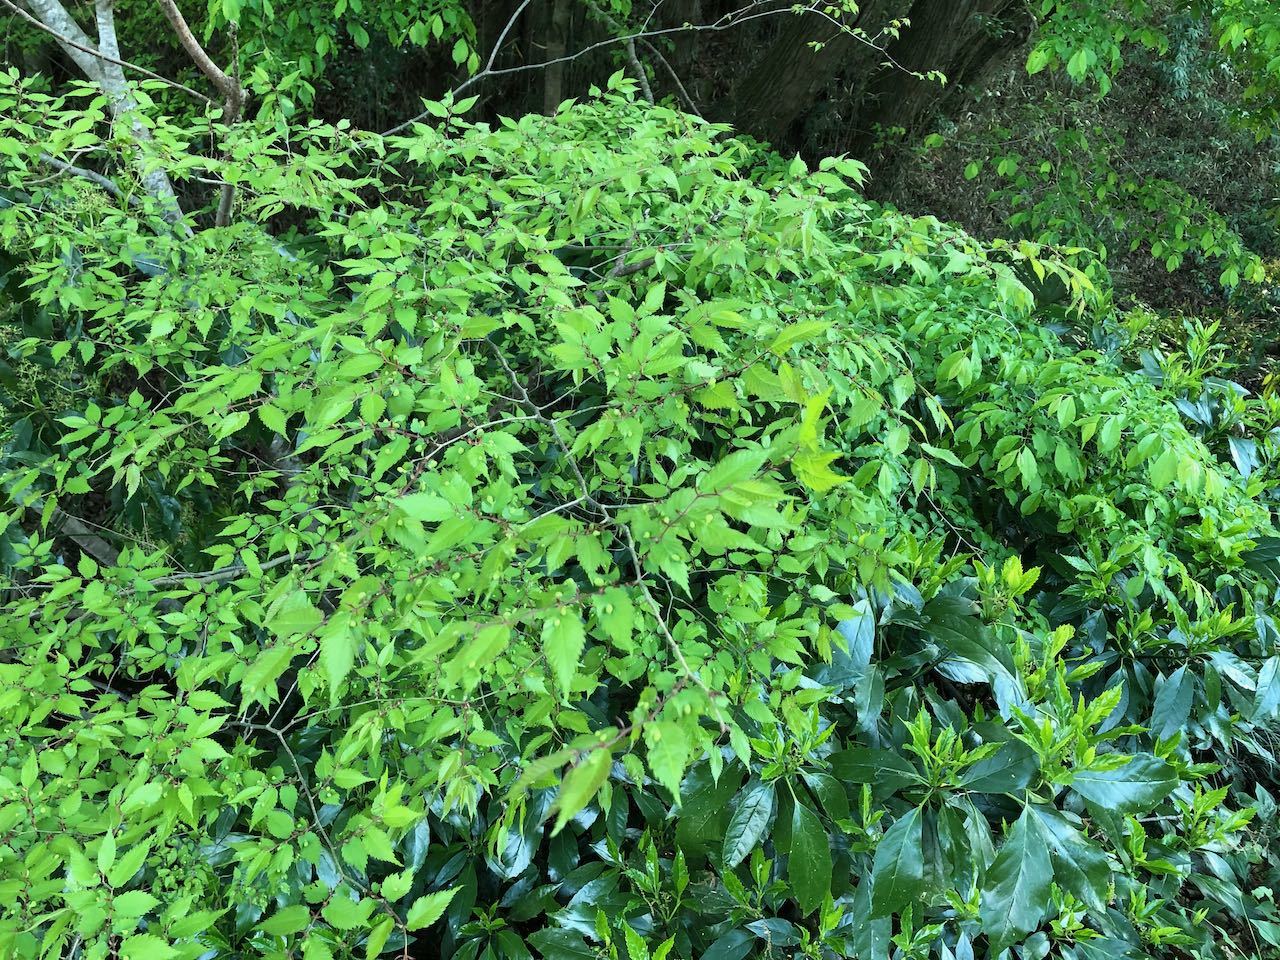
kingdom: Plantae
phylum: Tracheophyta
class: Magnoliopsida
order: Rosales
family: Ulmaceae
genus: Zelkova
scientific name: Zelkova serrata
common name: Japanese zelkova
